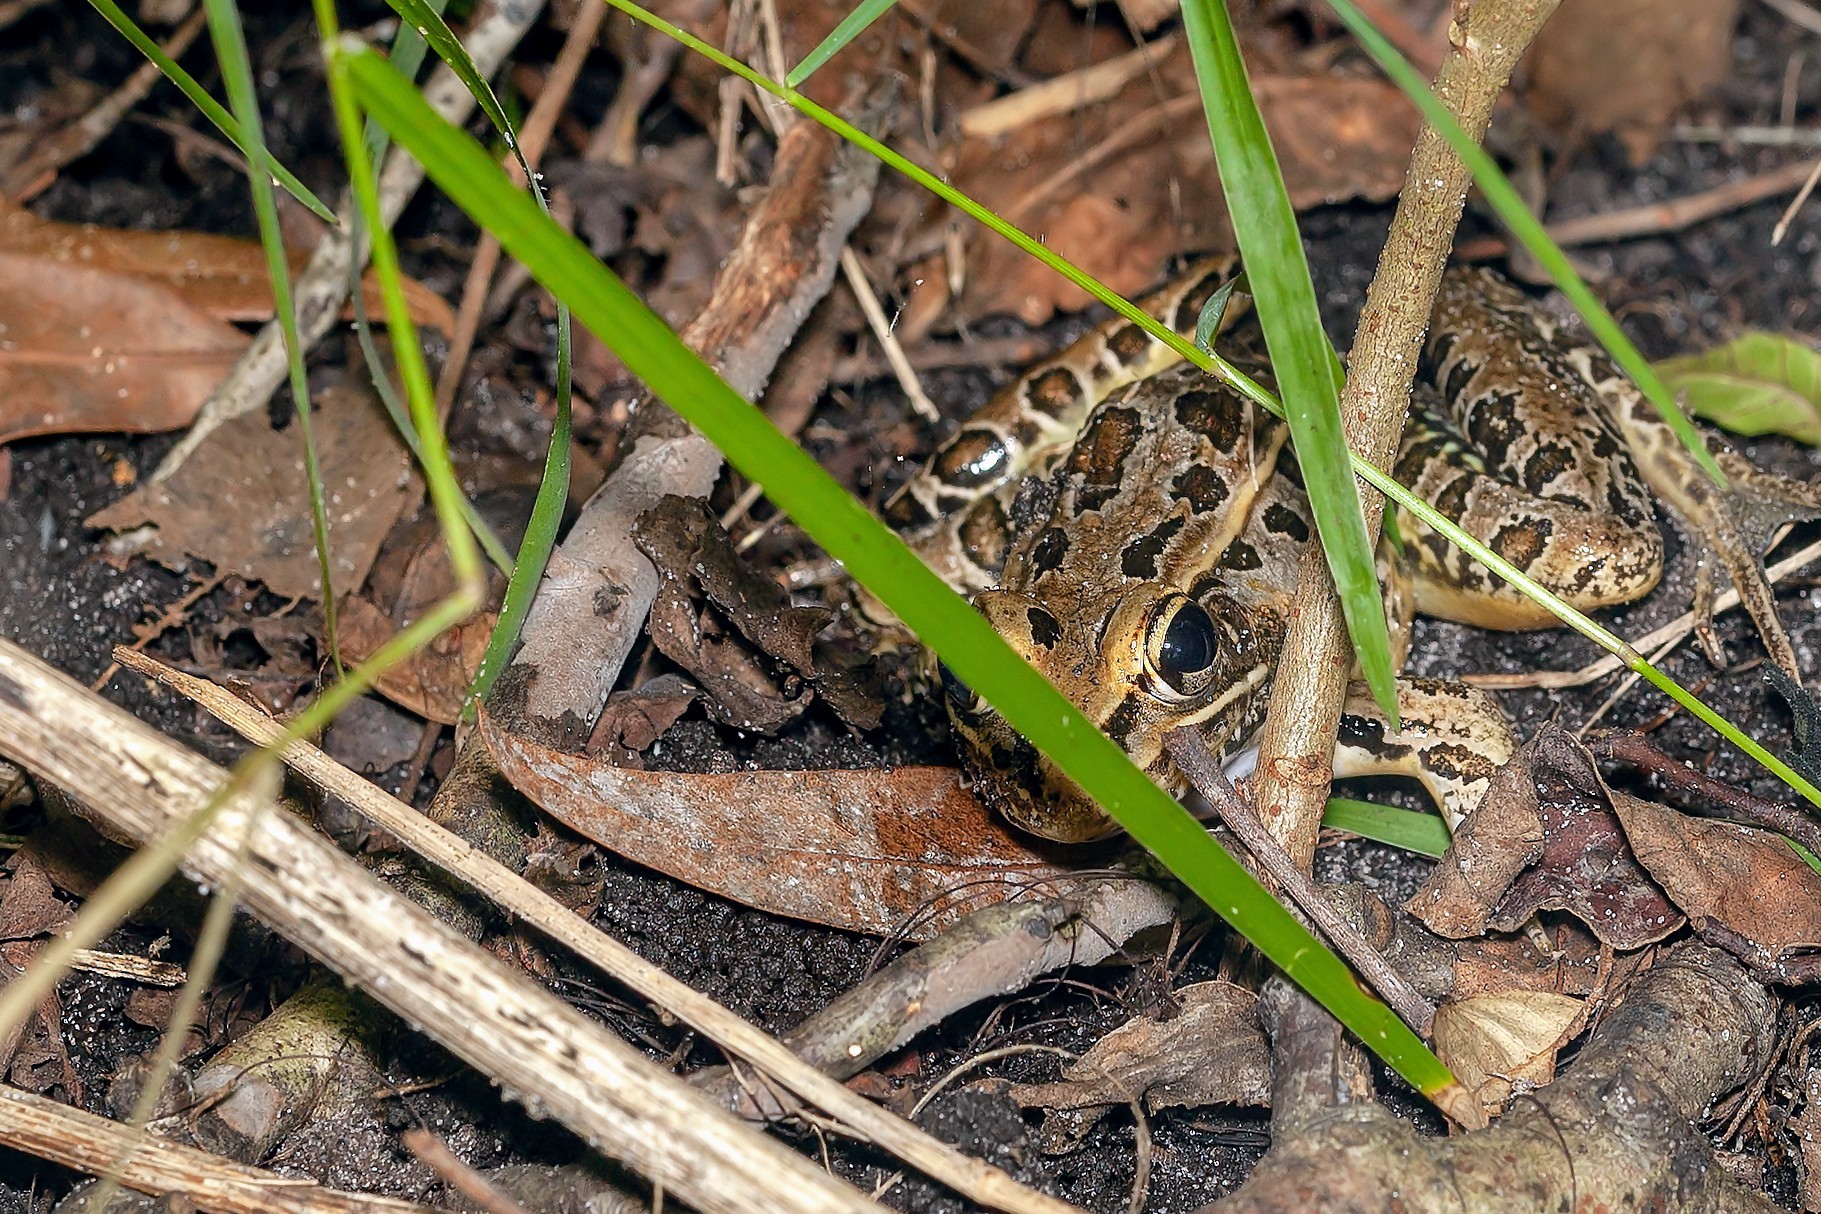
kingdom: Animalia
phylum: Chordata
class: Amphibia
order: Anura
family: Ranidae
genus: Lithobates
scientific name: Lithobates sphenocephalus
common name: Southern leopard frog
